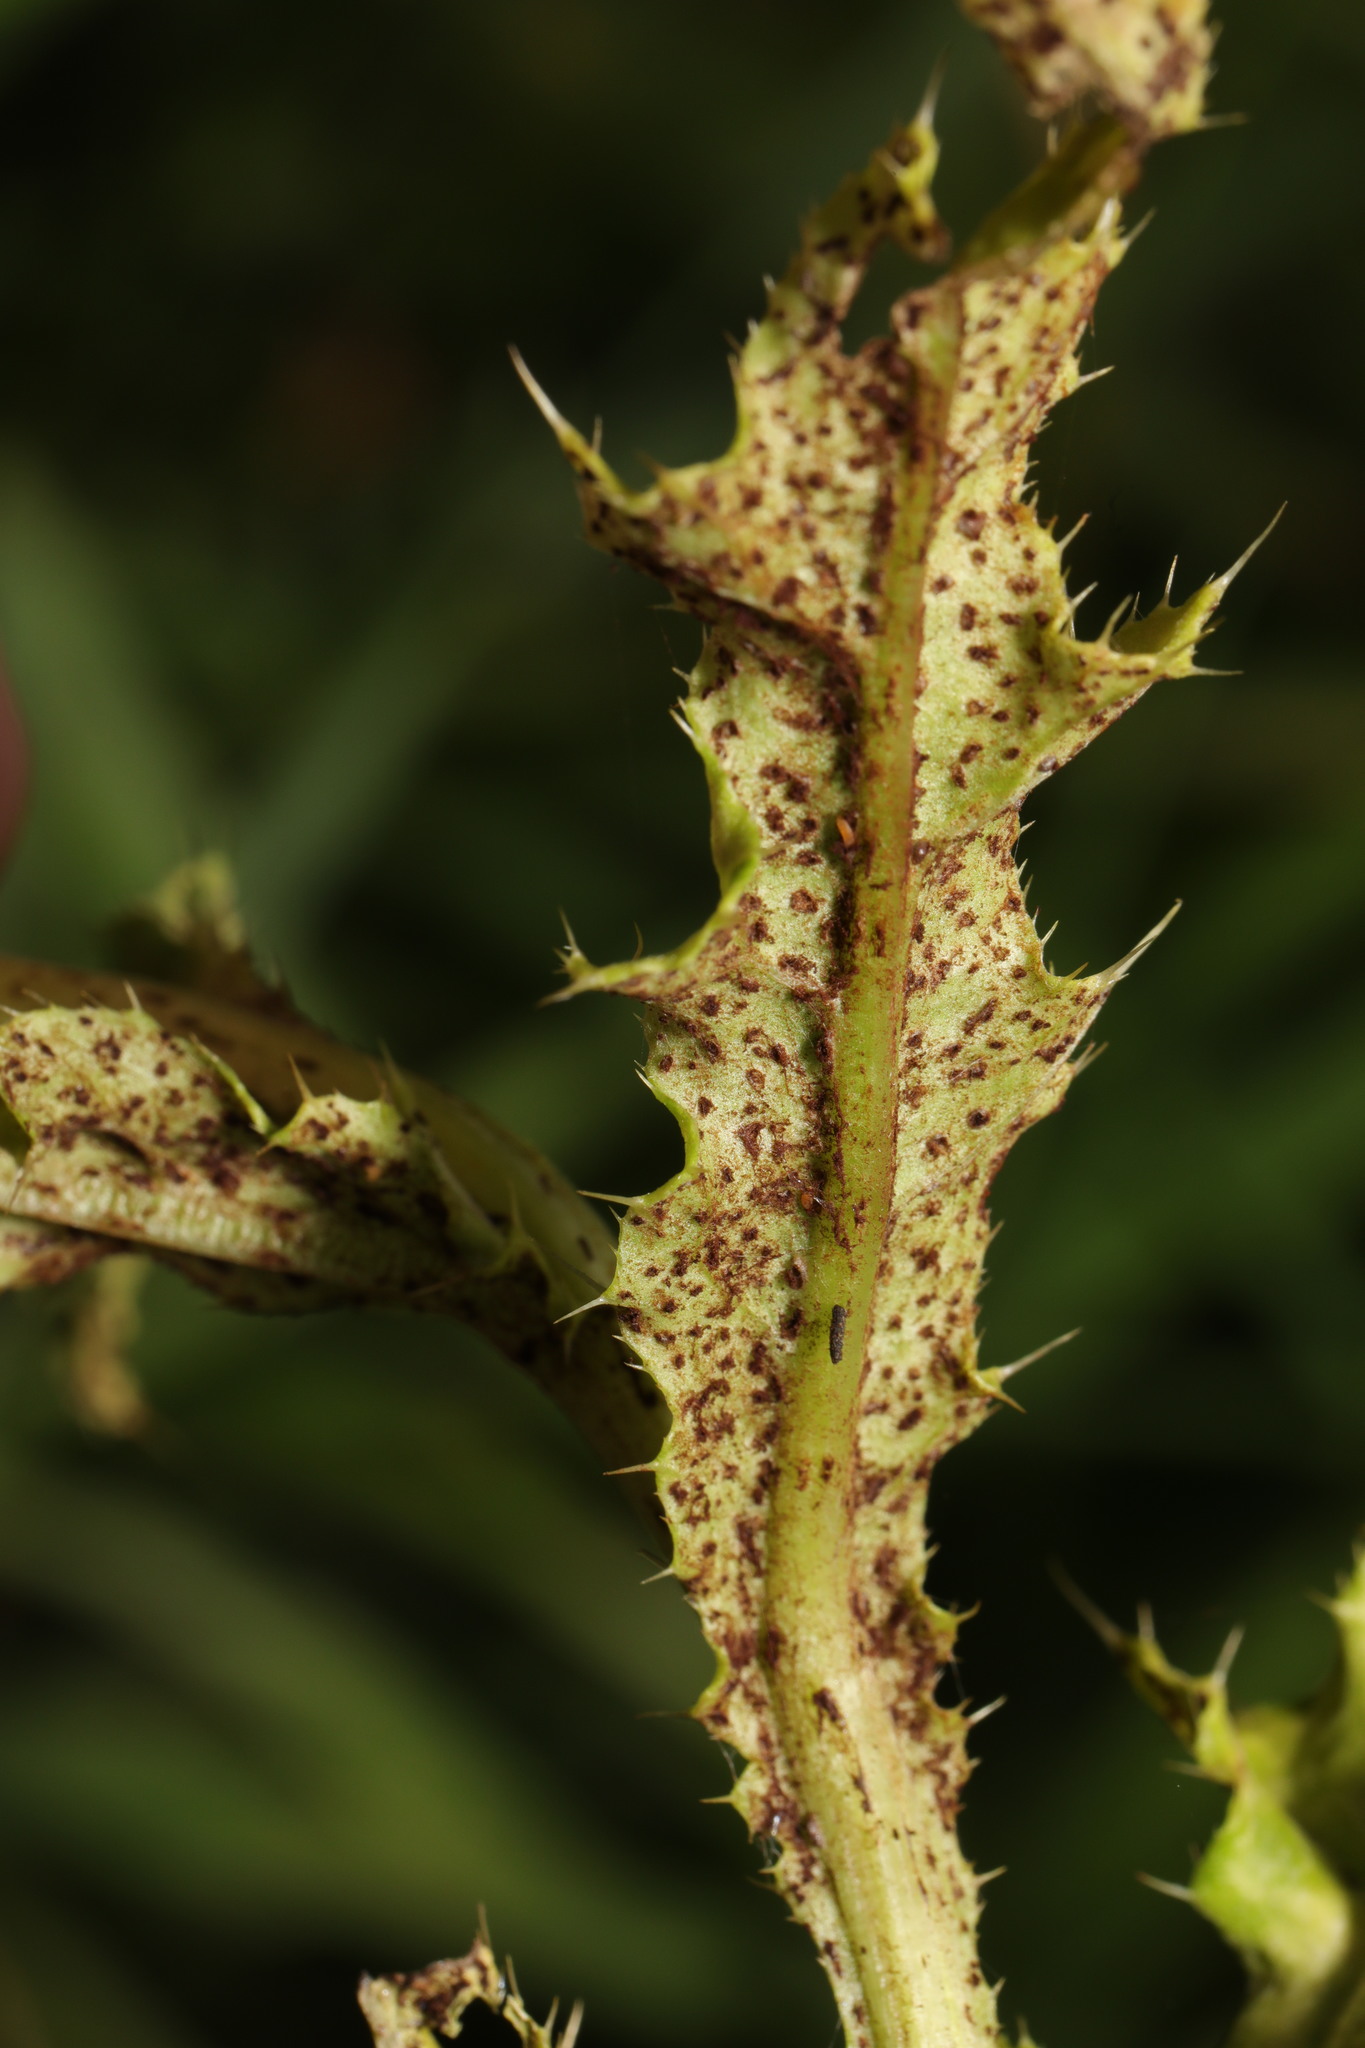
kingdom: Fungi
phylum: Basidiomycota
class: Pucciniomycetes
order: Pucciniales
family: Pucciniaceae
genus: Puccinia
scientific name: Puccinia suaveolens
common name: Thistle rust
